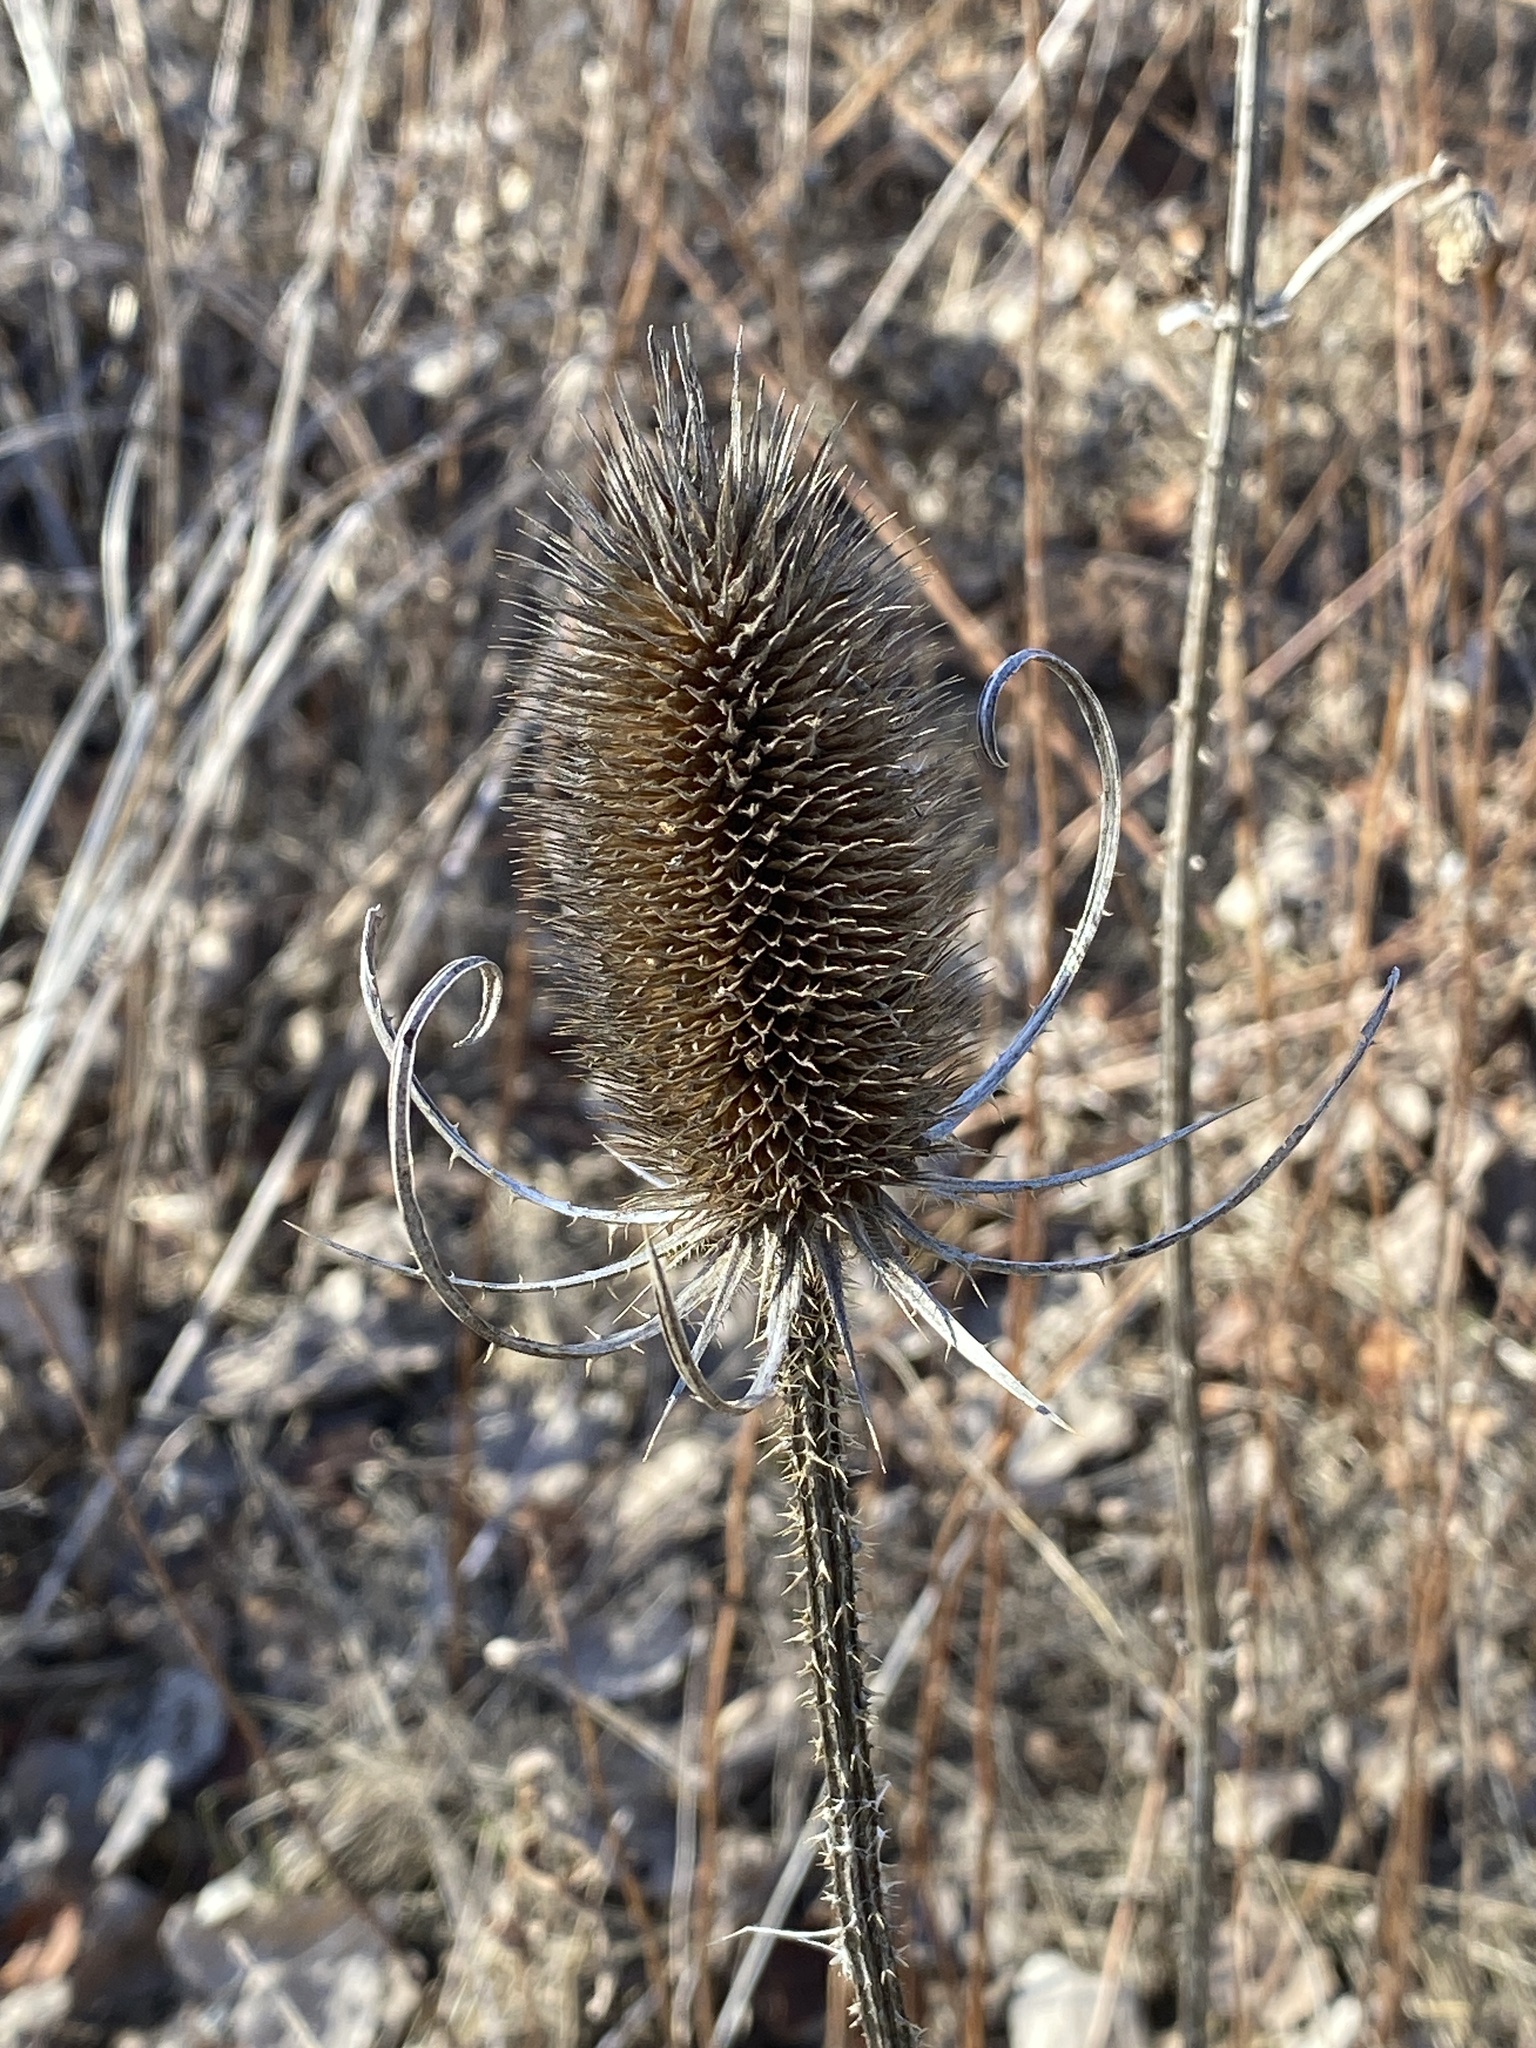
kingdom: Plantae
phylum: Tracheophyta
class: Magnoliopsida
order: Dipsacales
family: Caprifoliaceae
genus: Dipsacus
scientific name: Dipsacus fullonum
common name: Teasel
